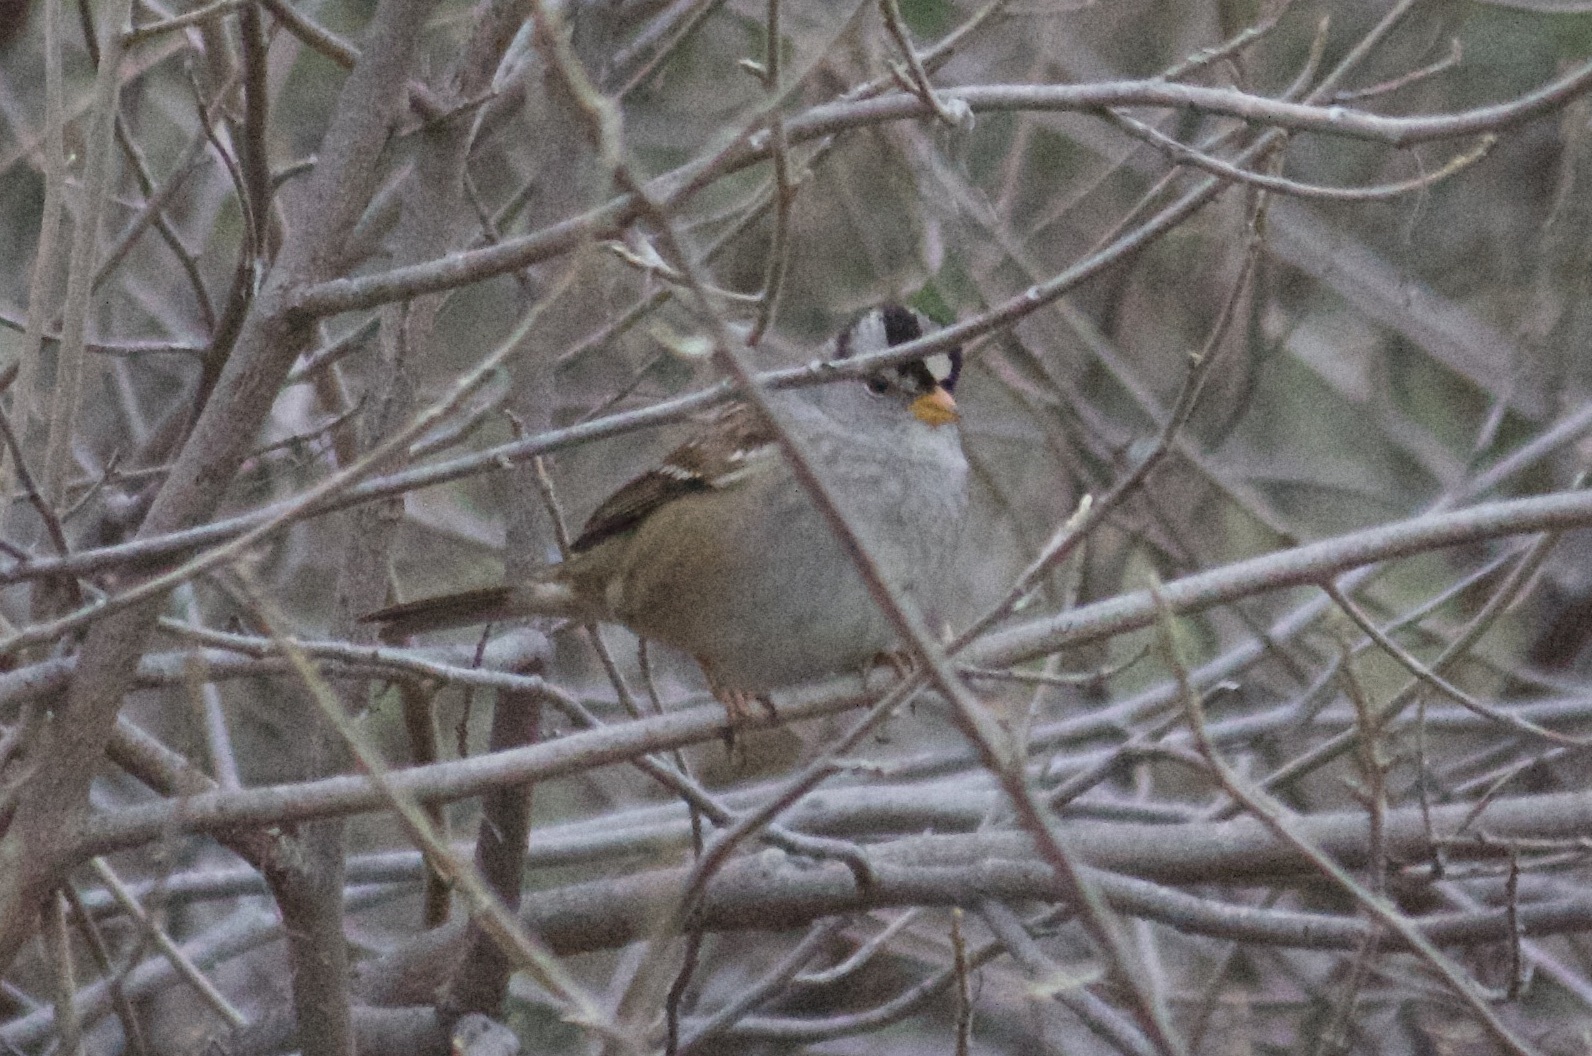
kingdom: Animalia
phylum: Chordata
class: Aves
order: Passeriformes
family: Passerellidae
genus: Zonotrichia
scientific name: Zonotrichia leucophrys
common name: White-crowned sparrow
